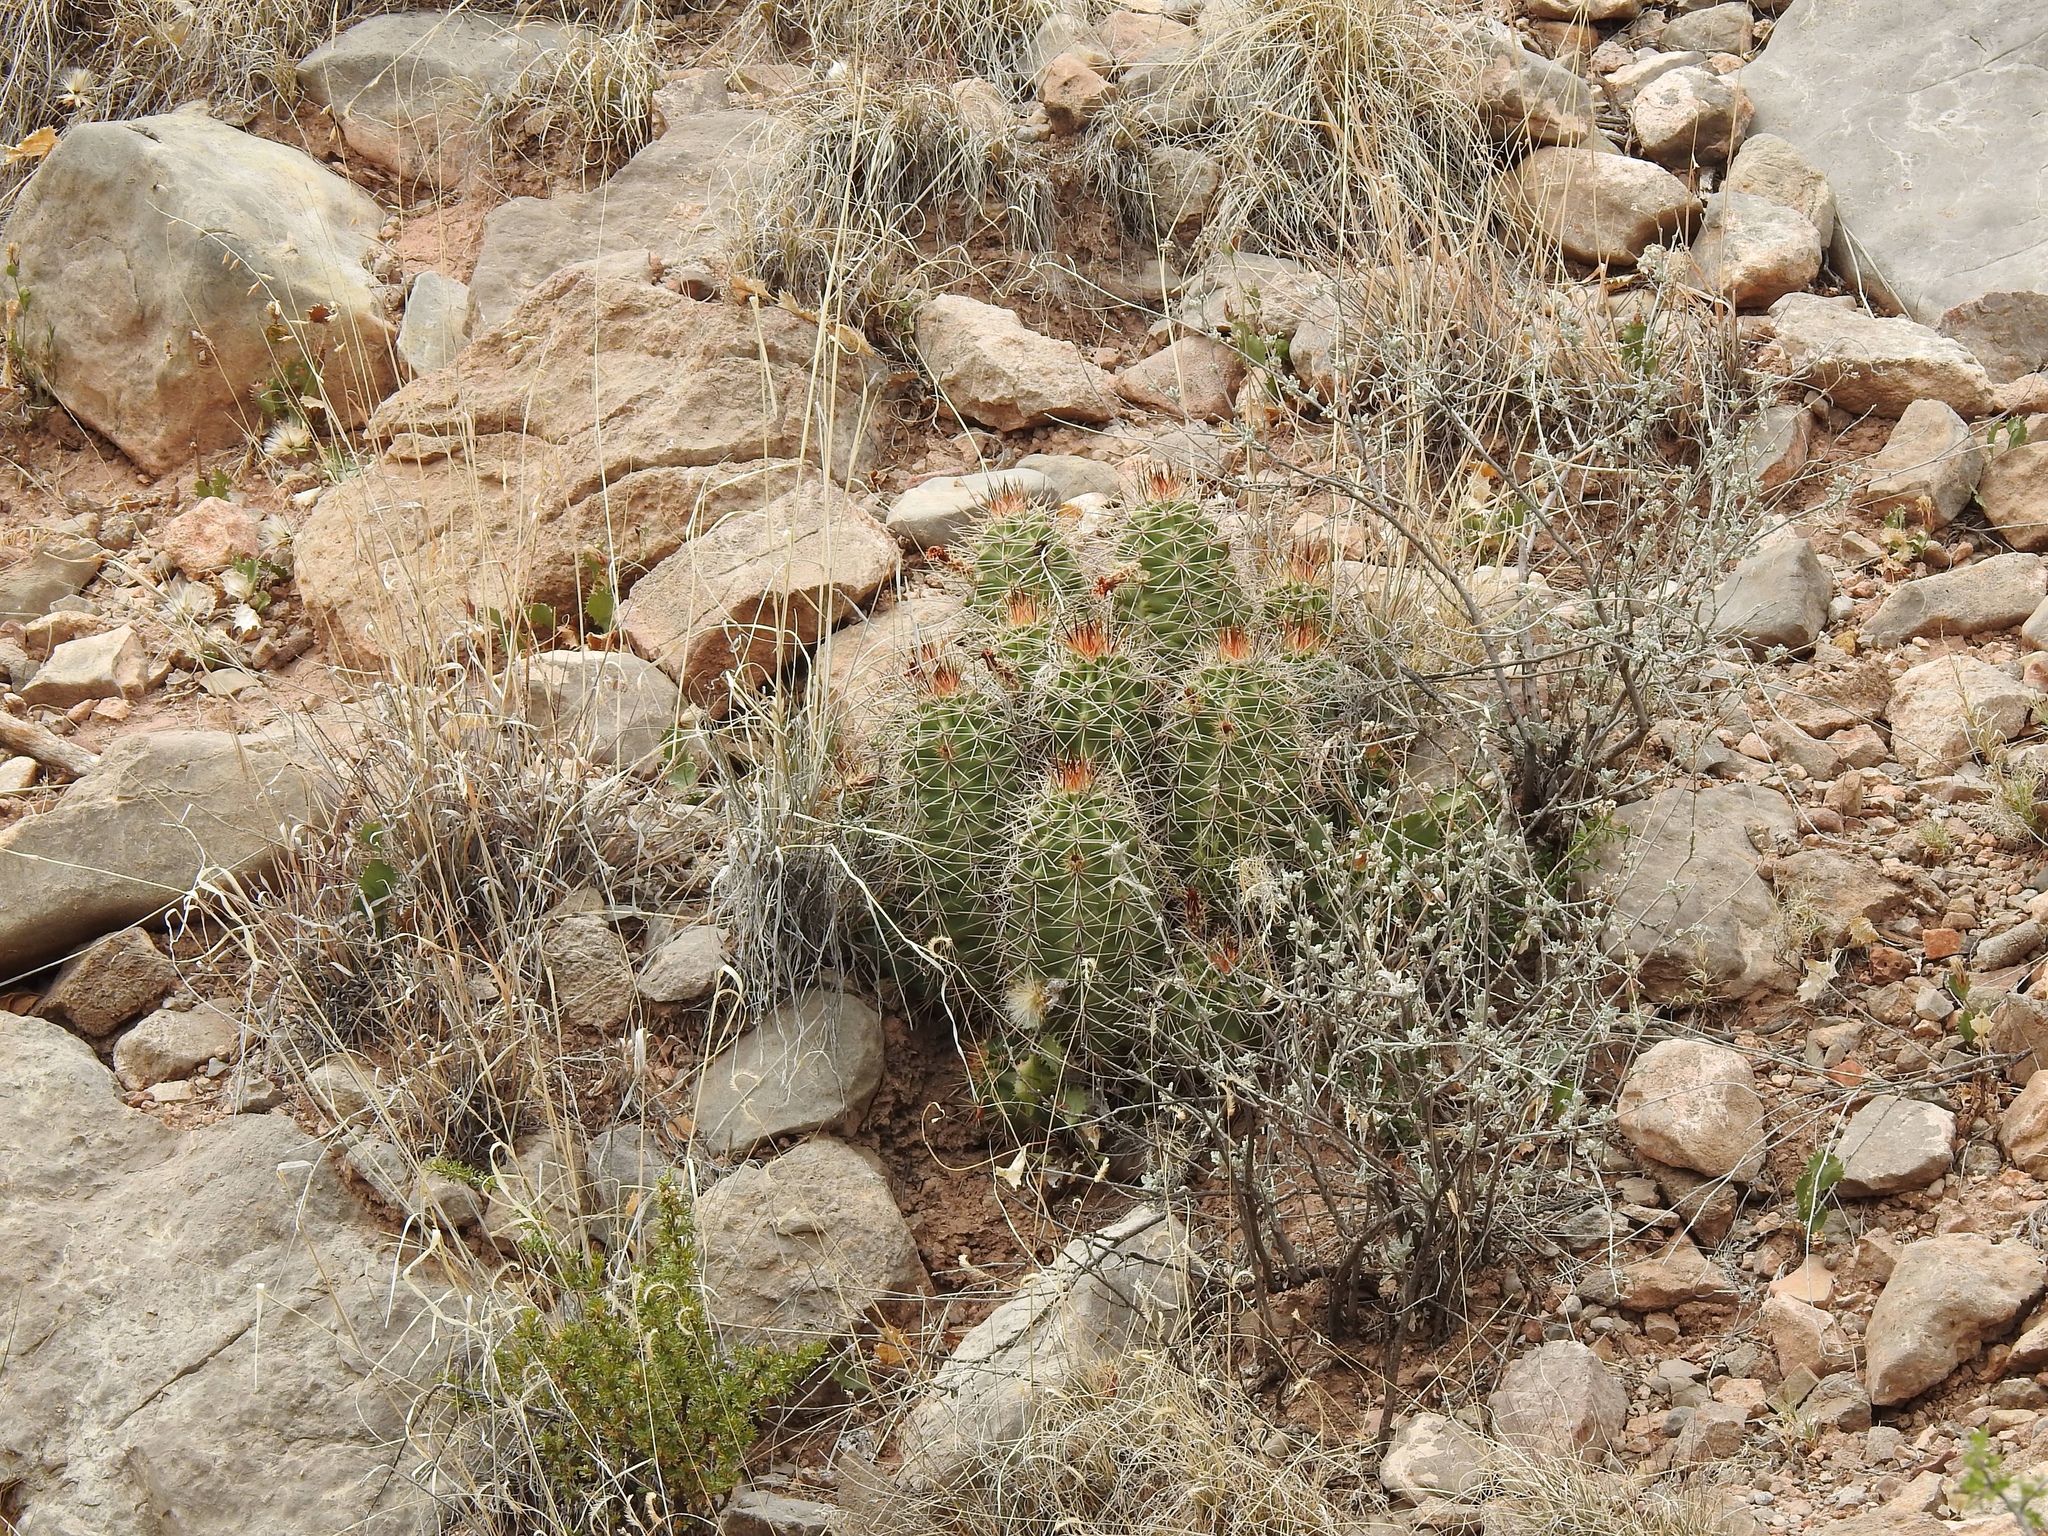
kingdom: Plantae
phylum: Tracheophyta
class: Magnoliopsida
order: Caryophyllales
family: Cactaceae
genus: Echinocereus
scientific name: Echinocereus coccineus
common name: Scarlet hedgehog cactus
